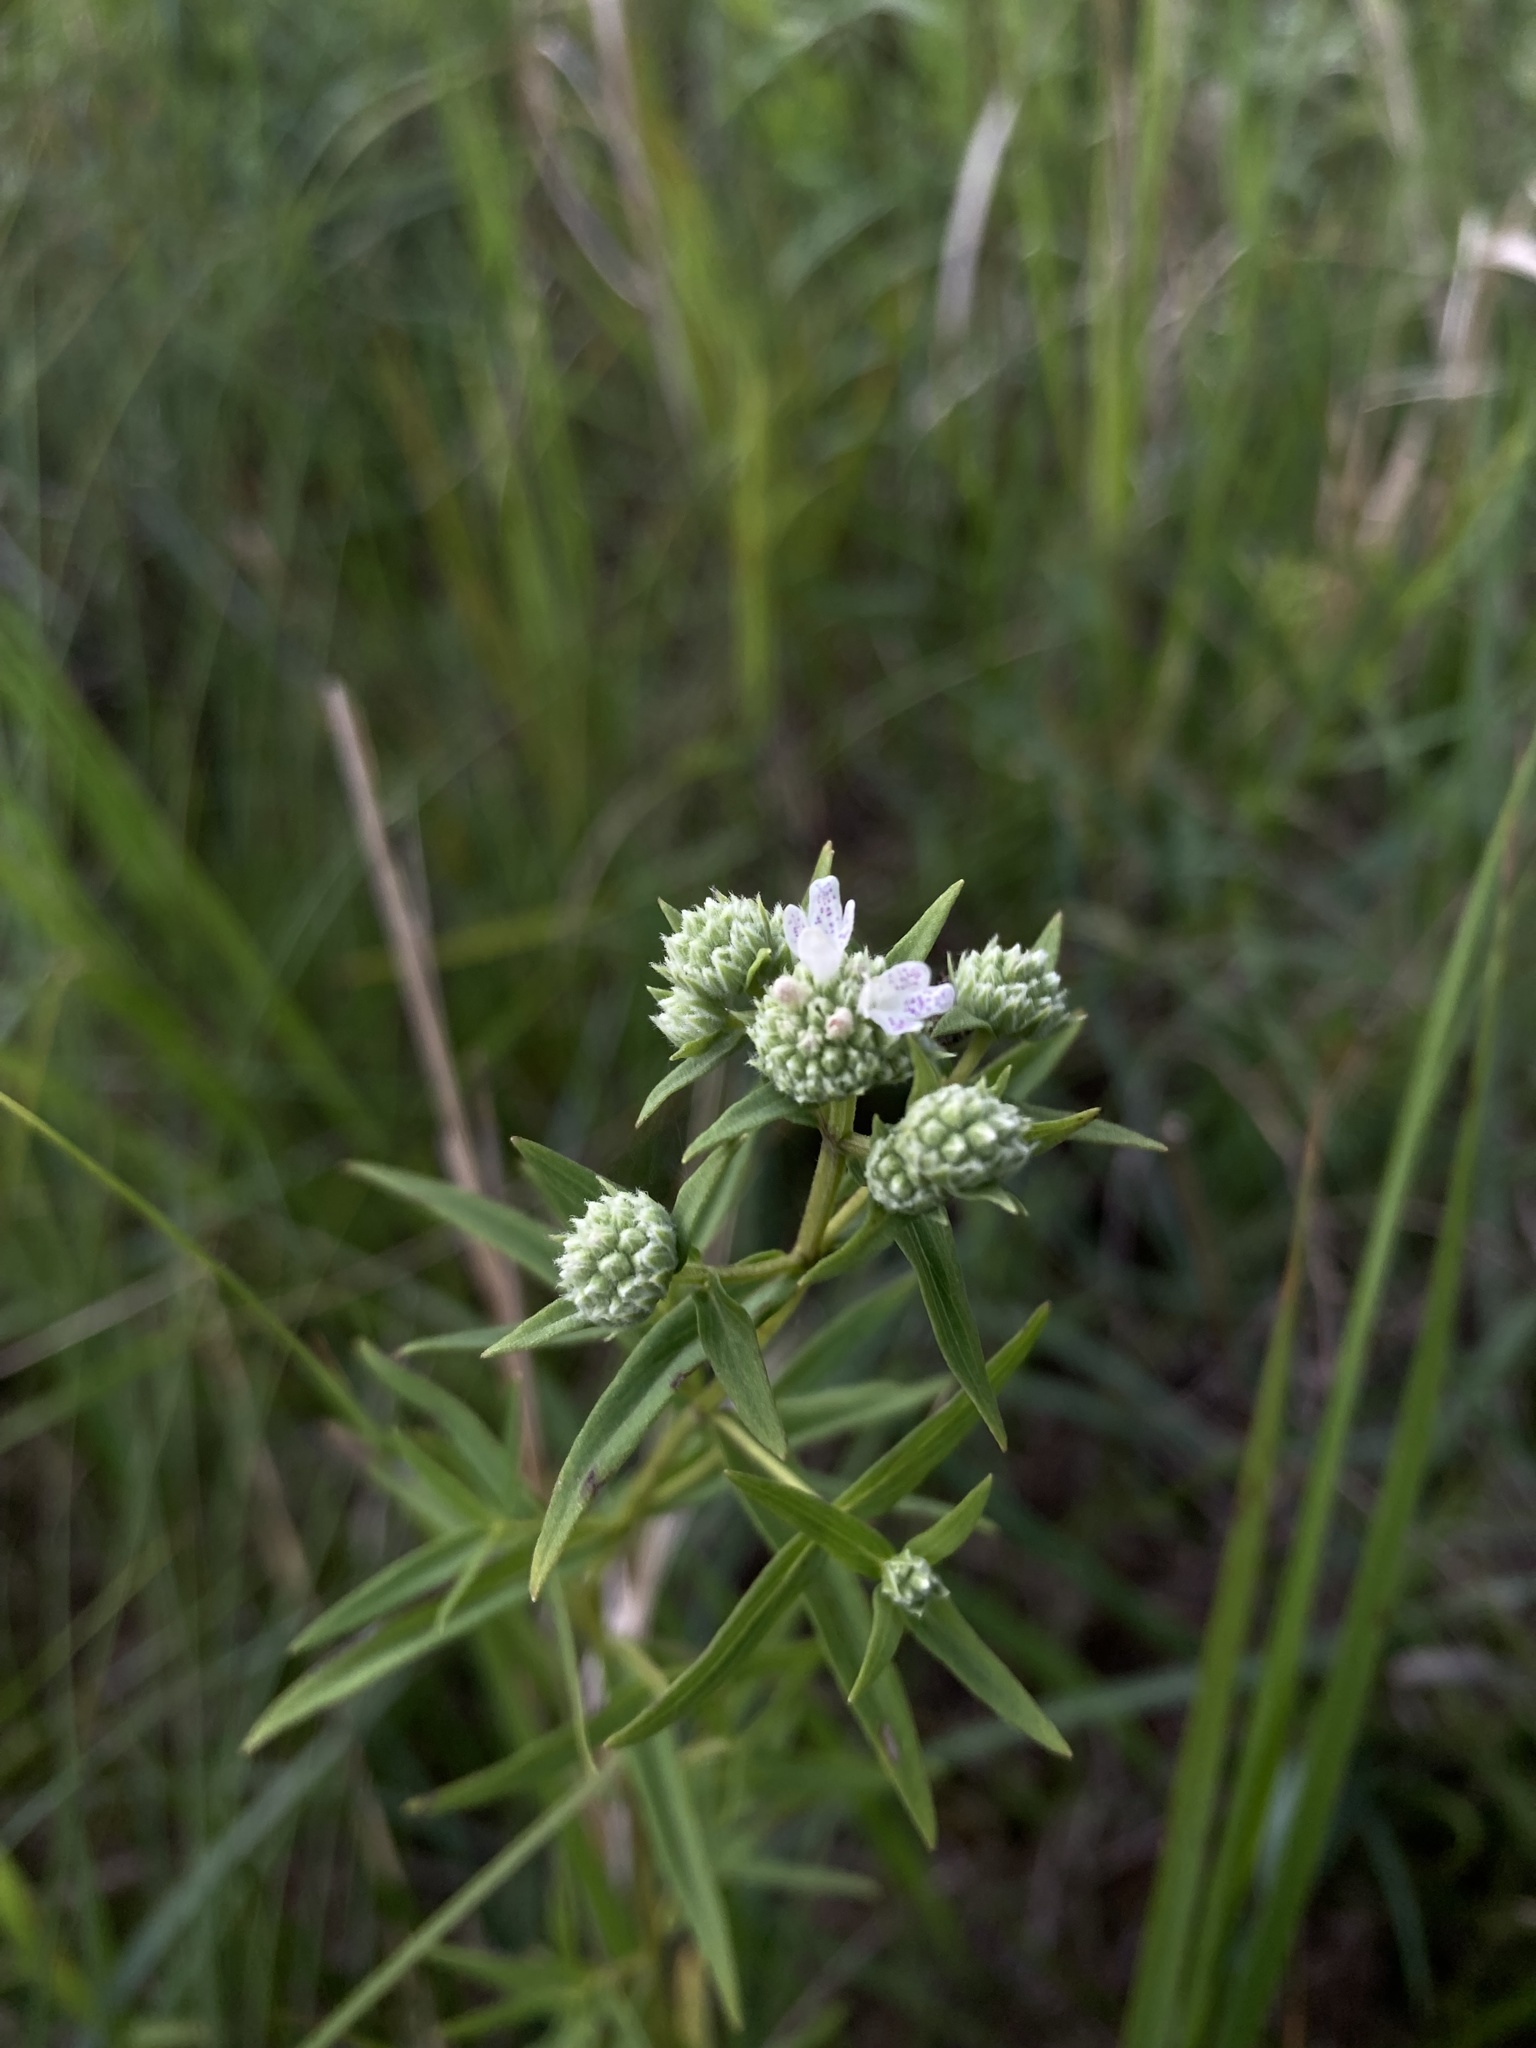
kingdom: Plantae
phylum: Tracheophyta
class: Magnoliopsida
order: Lamiales
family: Lamiaceae
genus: Pycnanthemum
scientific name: Pycnanthemum virginianum
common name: Virginia mountain-mint
